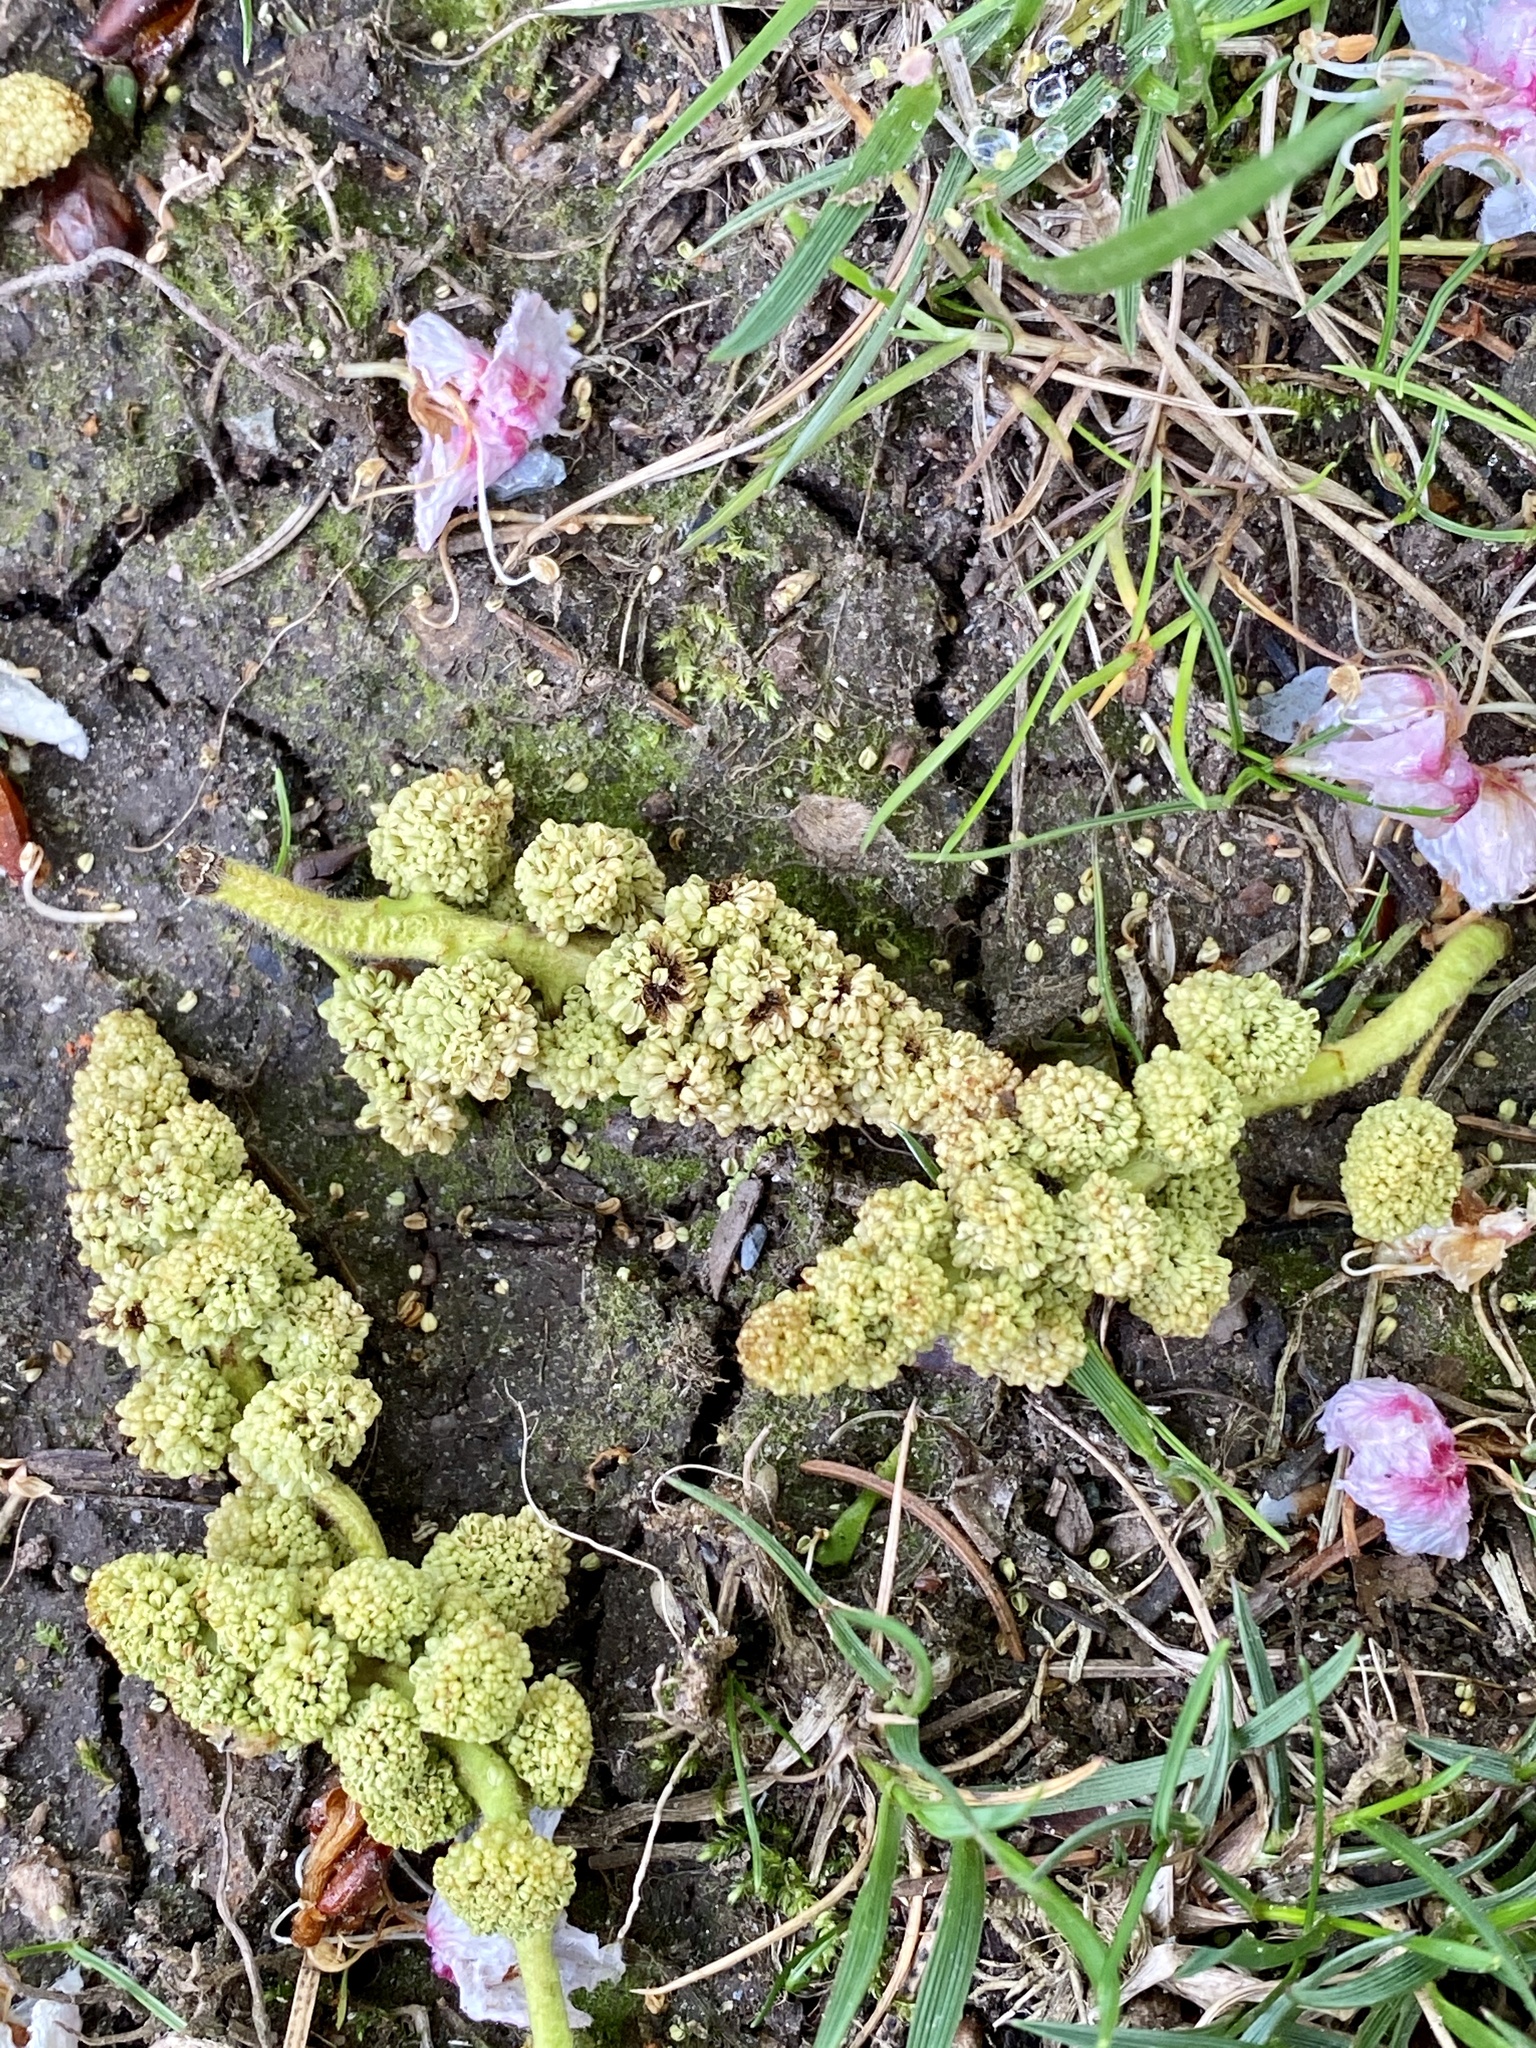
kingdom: Plantae
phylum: Tracheophyta
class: Magnoliopsida
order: Saxifragales
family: Altingiaceae
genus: Liquidambar
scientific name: Liquidambar styraciflua
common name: Sweet gum
